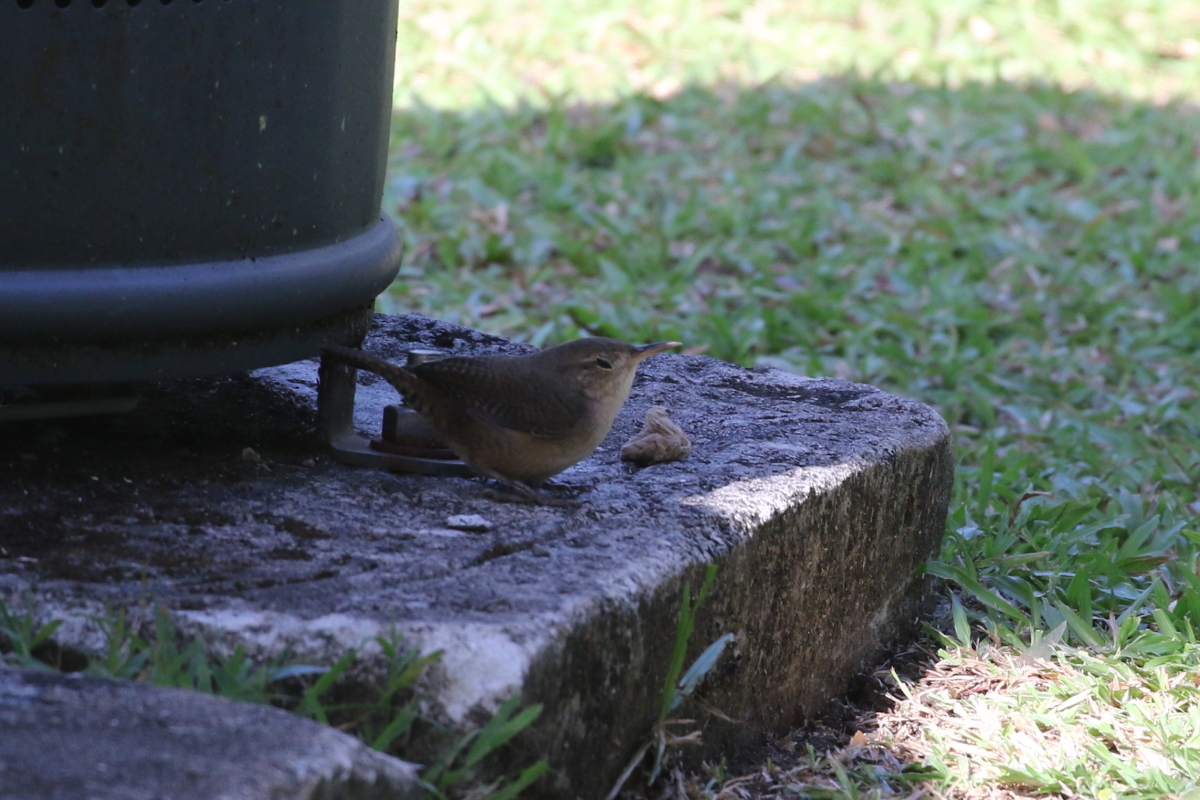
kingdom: Animalia
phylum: Chordata
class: Aves
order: Passeriformes
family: Troglodytidae
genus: Troglodytes
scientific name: Troglodytes aedon
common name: House wren
